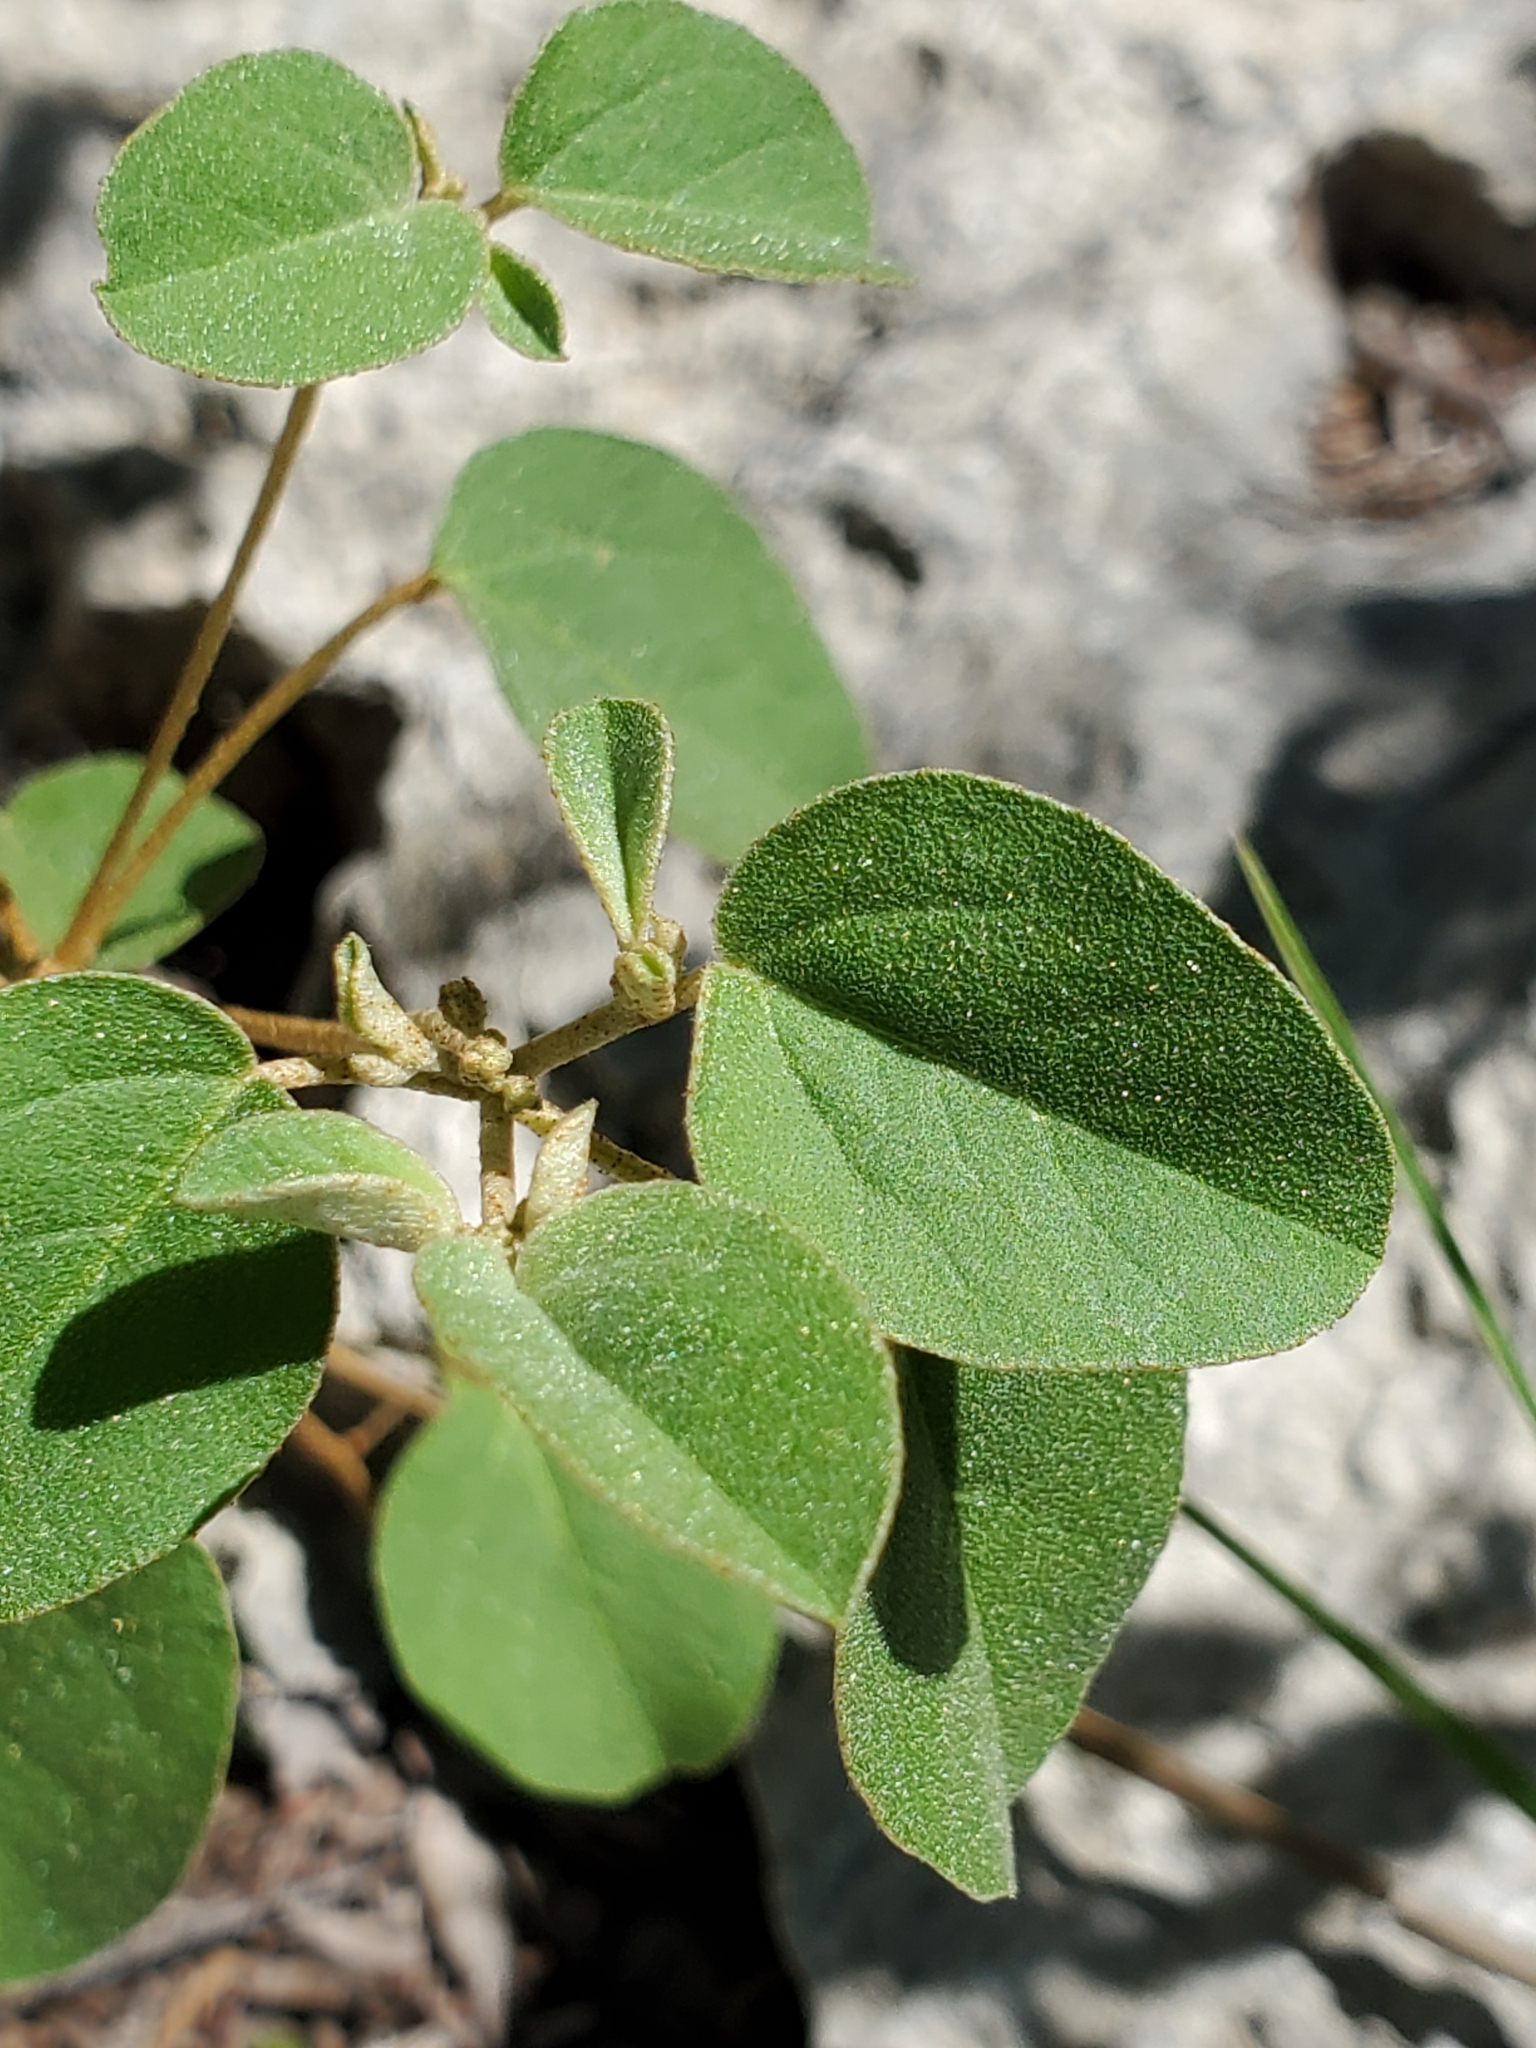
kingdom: Plantae
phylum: Tracheophyta
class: Magnoliopsida
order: Malpighiales
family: Euphorbiaceae
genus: Croton
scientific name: Croton monanthogynus
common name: One-seed croton
